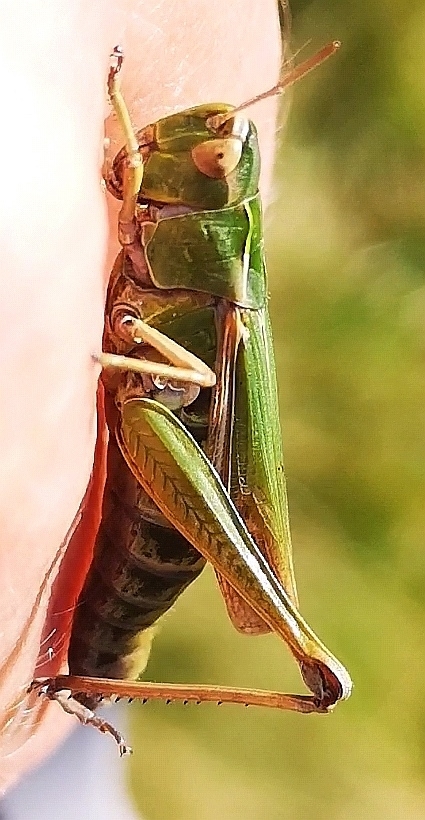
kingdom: Animalia
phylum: Arthropoda
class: Insecta
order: Orthoptera
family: Acrididae
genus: Omocestus
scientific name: Omocestus viridulus
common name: Common green grasshopper
